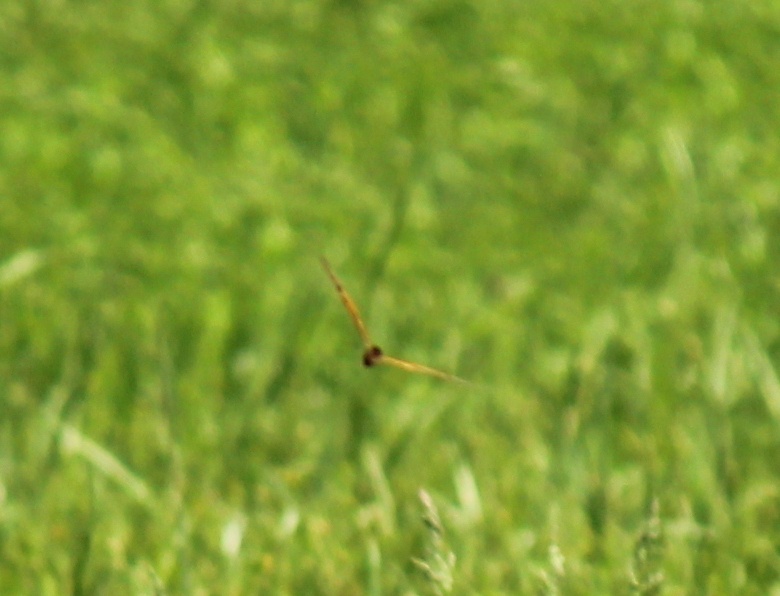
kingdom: Animalia
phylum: Arthropoda
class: Insecta
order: Lepidoptera
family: Nymphalidae
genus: Danaus
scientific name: Danaus plexippus
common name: Monarch
